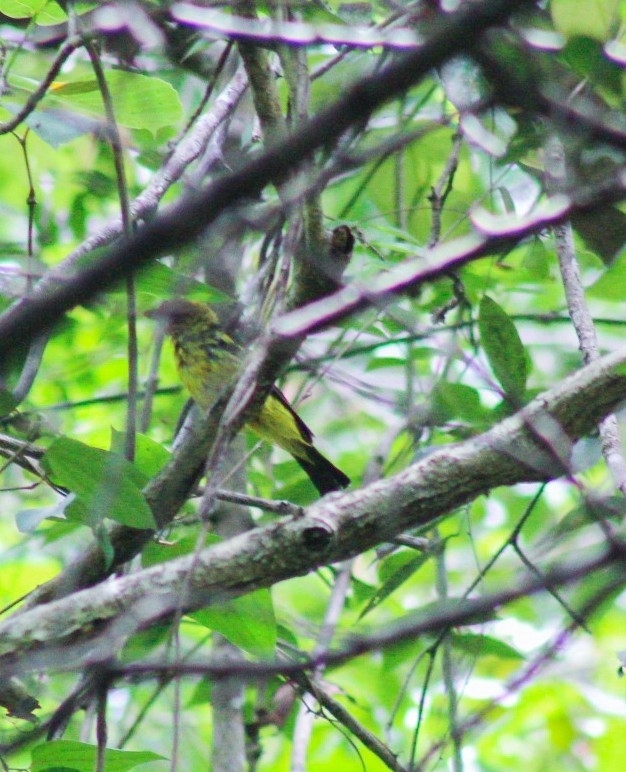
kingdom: Animalia
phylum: Chordata
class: Aves
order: Passeriformes
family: Cardinalidae
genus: Piranga
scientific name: Piranga ludoviciana
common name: Western tanager
